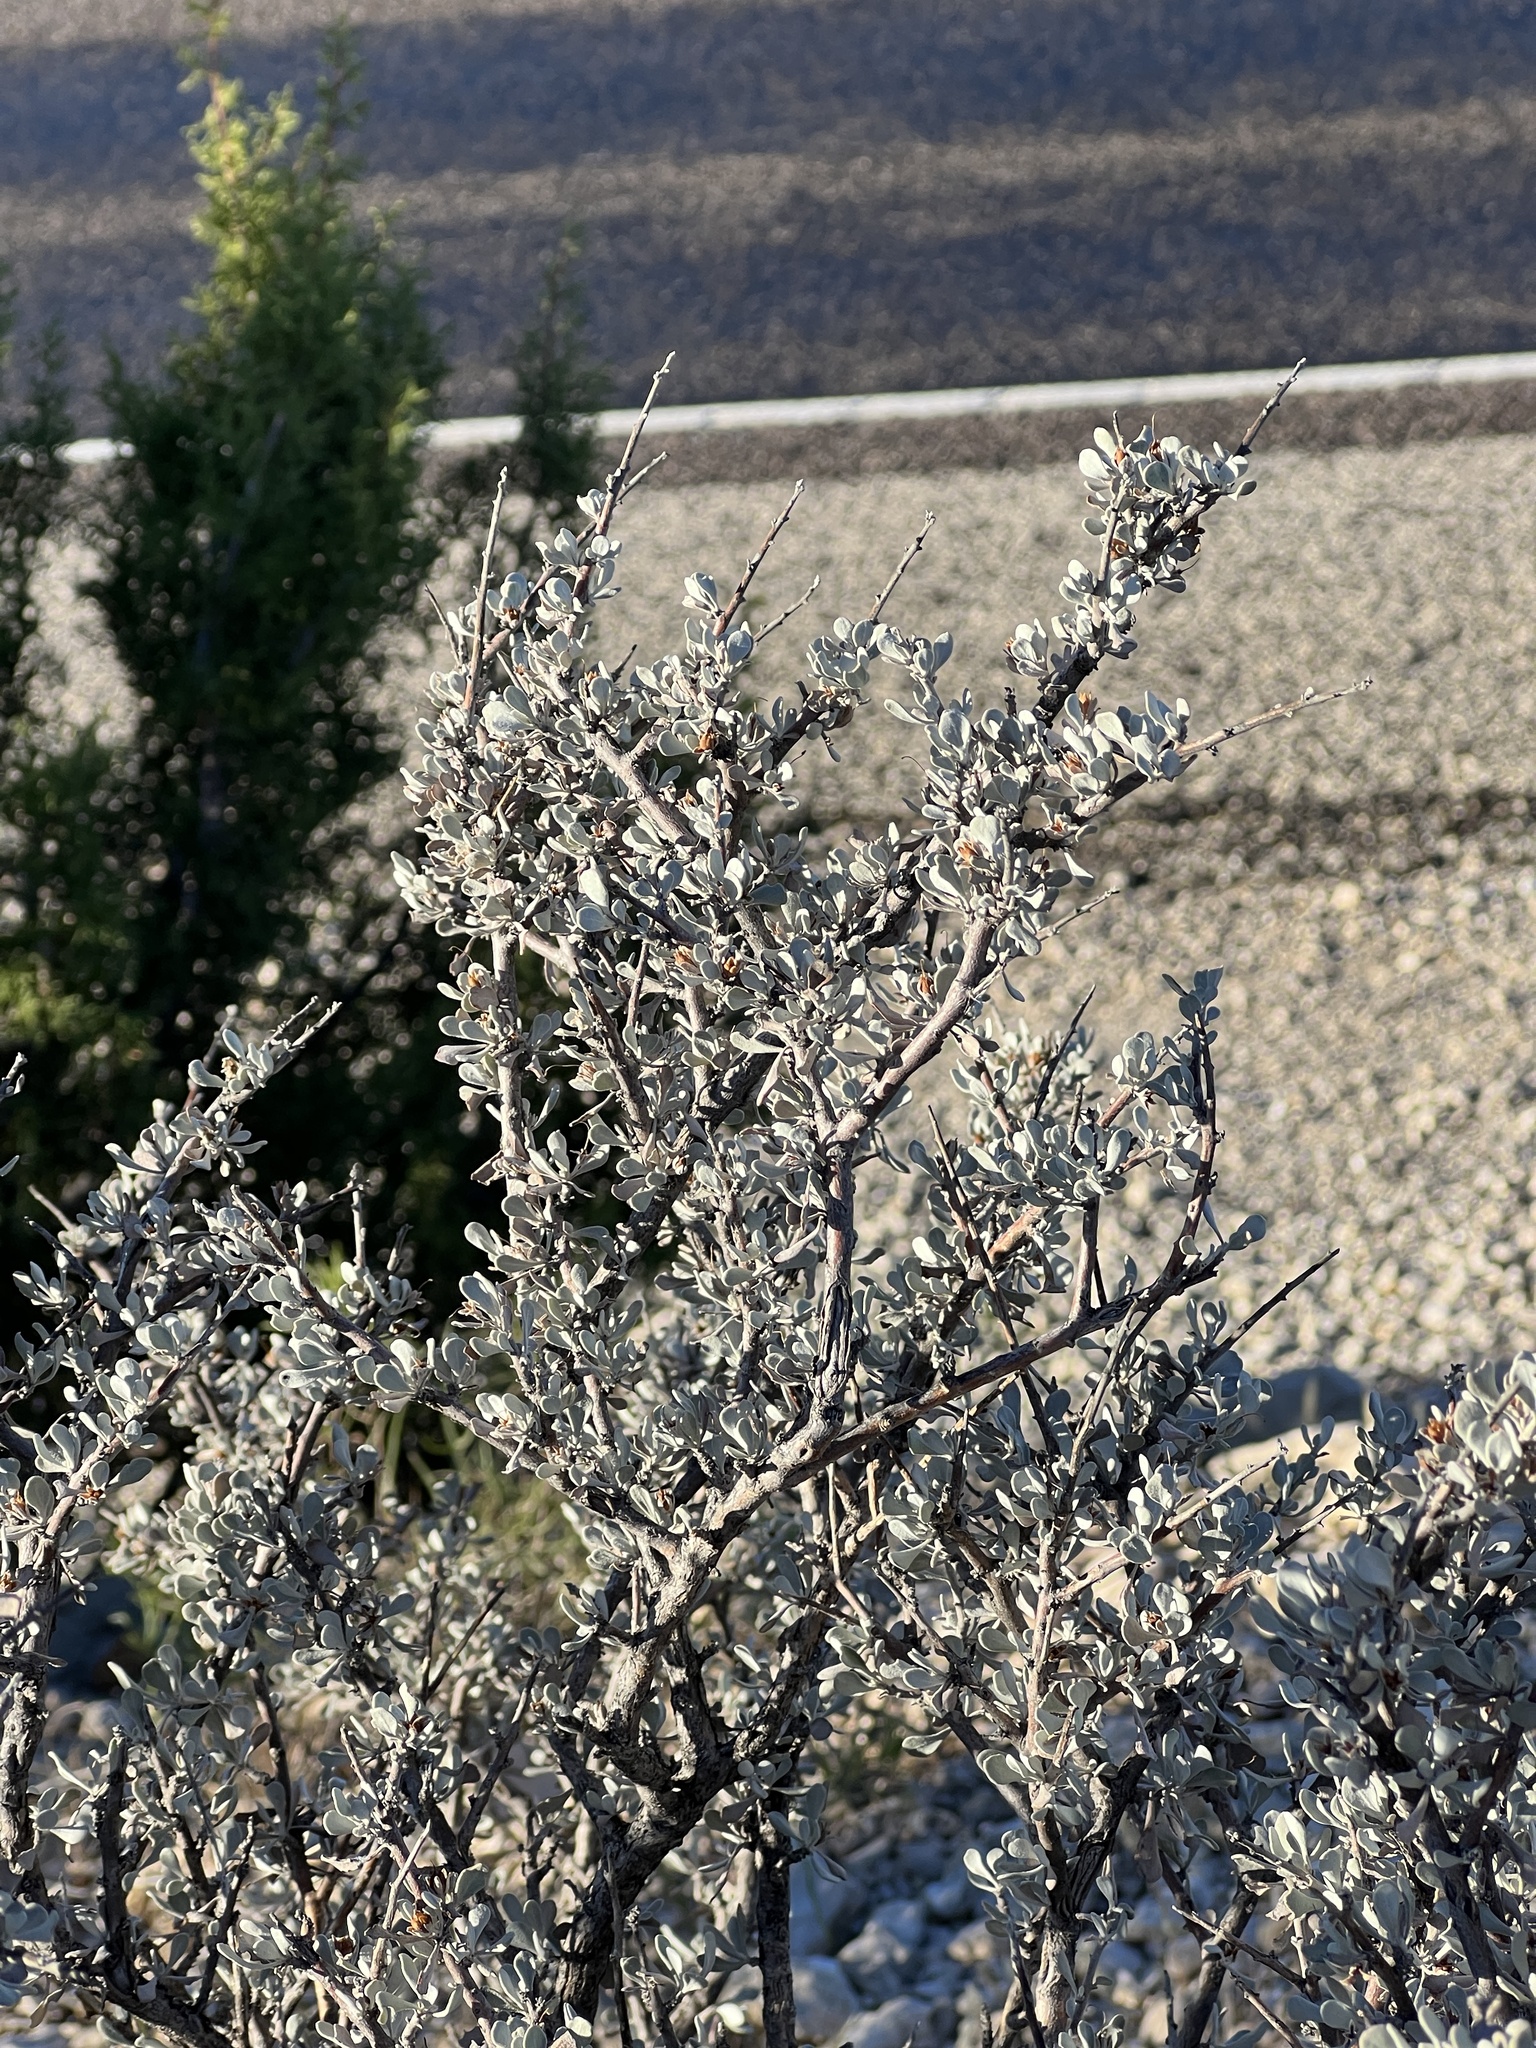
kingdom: Plantae
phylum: Tracheophyta
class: Magnoliopsida
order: Lamiales
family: Scrophulariaceae
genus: Leucophyllum
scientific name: Leucophyllum minus
